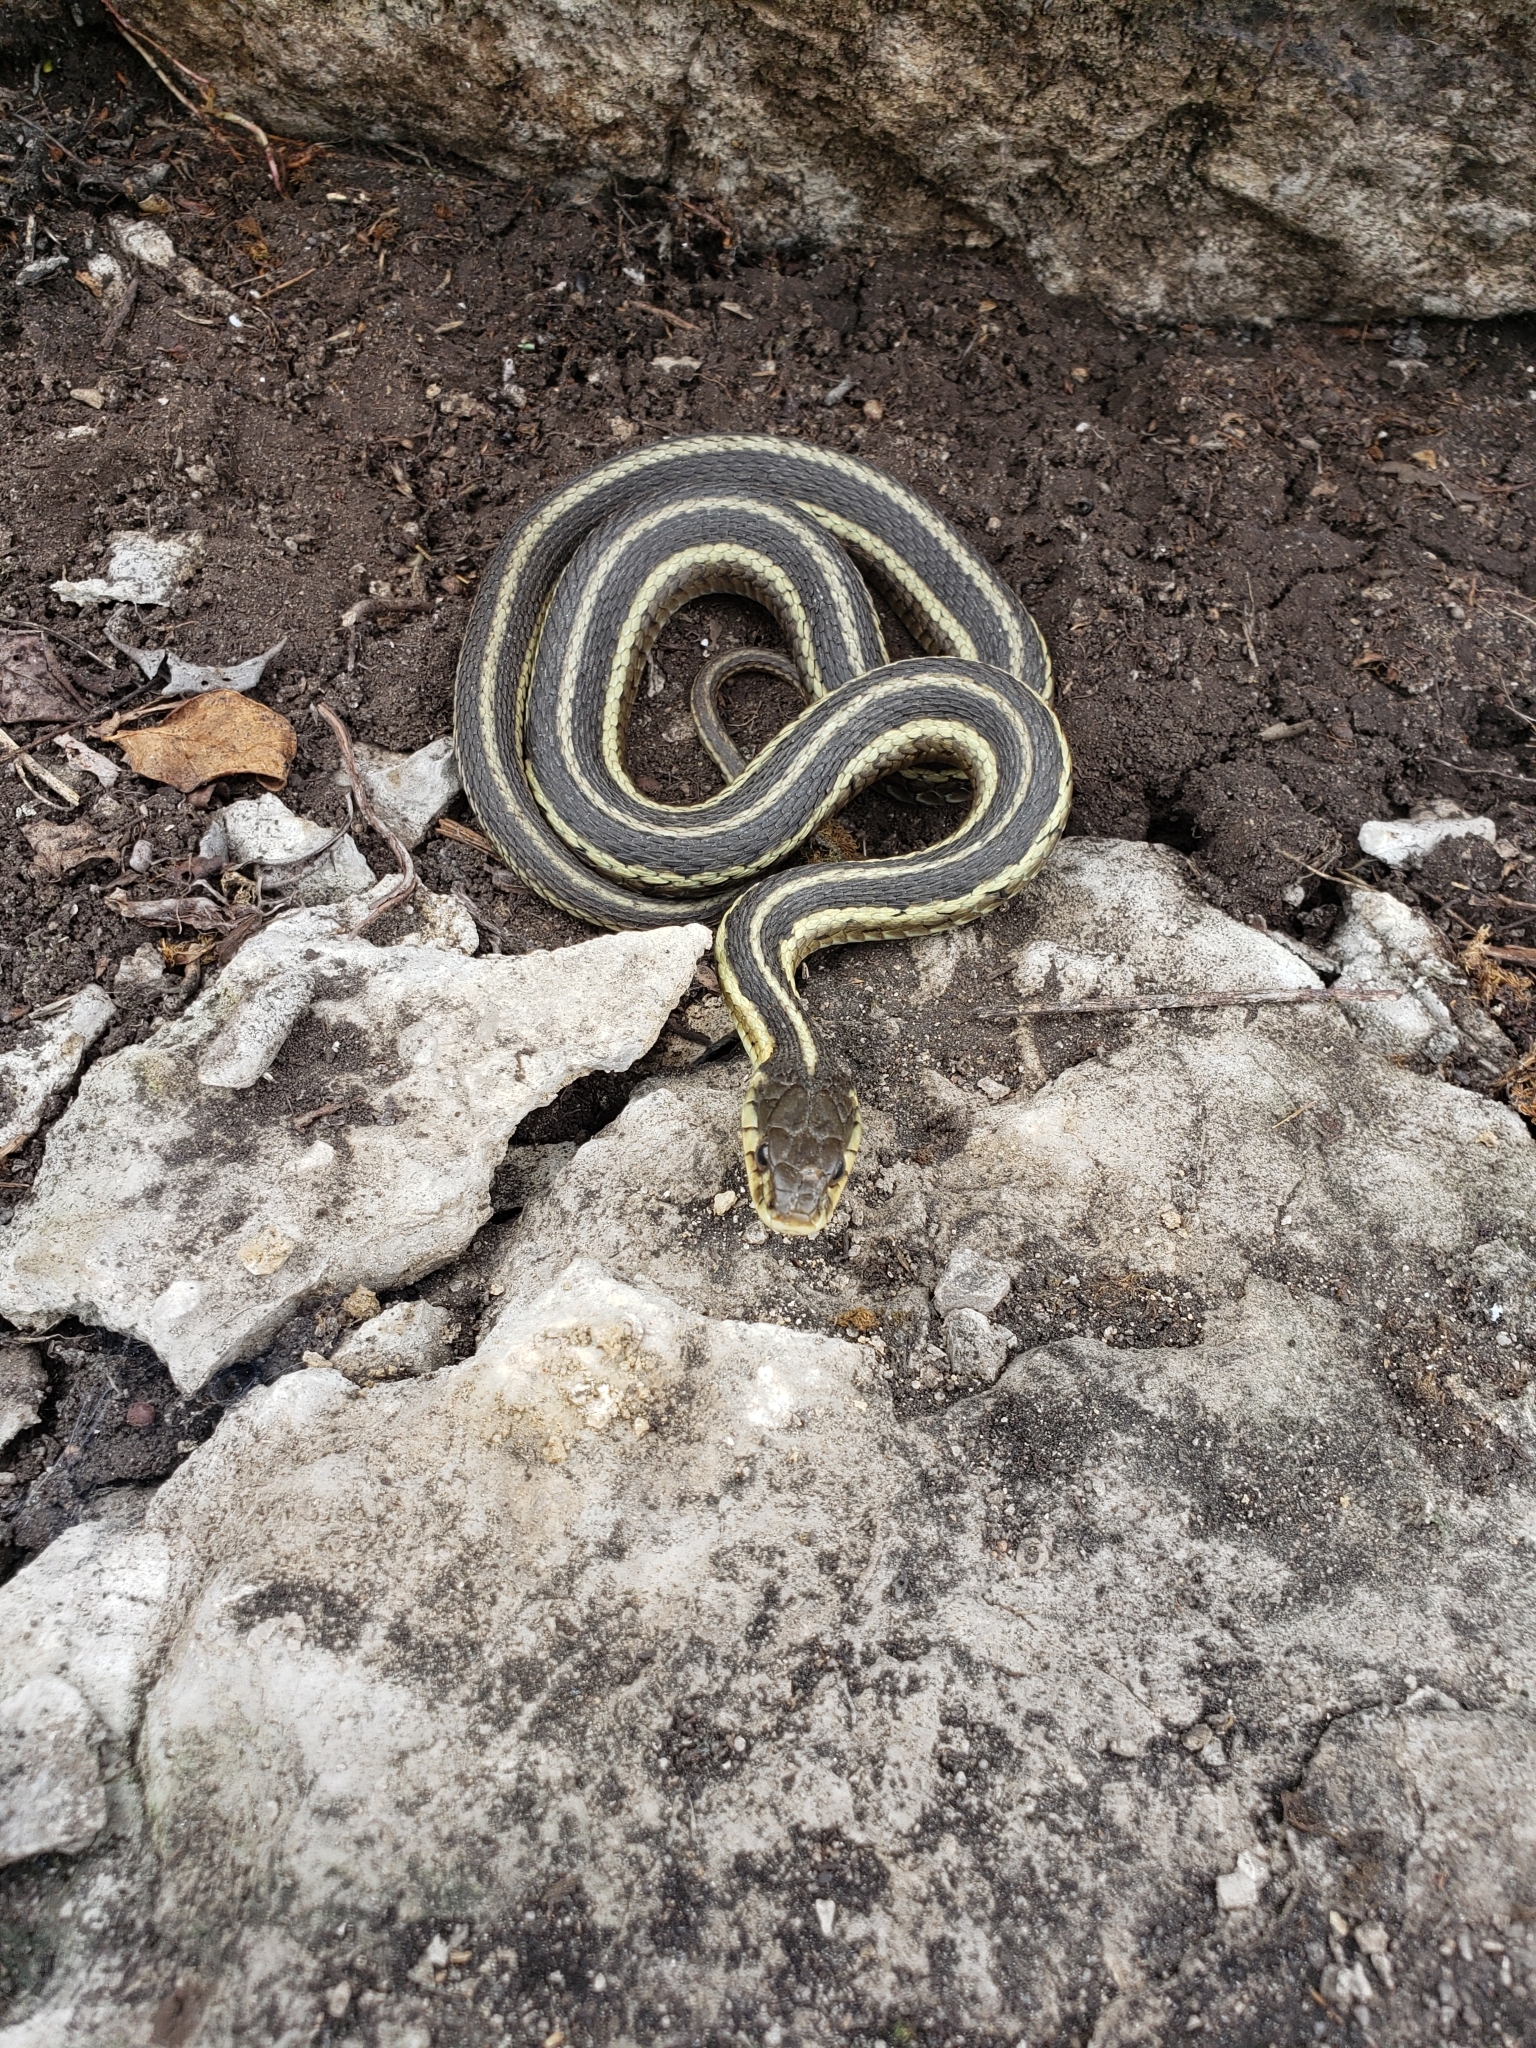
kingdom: Animalia
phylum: Chordata
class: Squamata
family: Colubridae
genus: Thamnophis
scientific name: Thamnophis sirtalis
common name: Common garter snake
